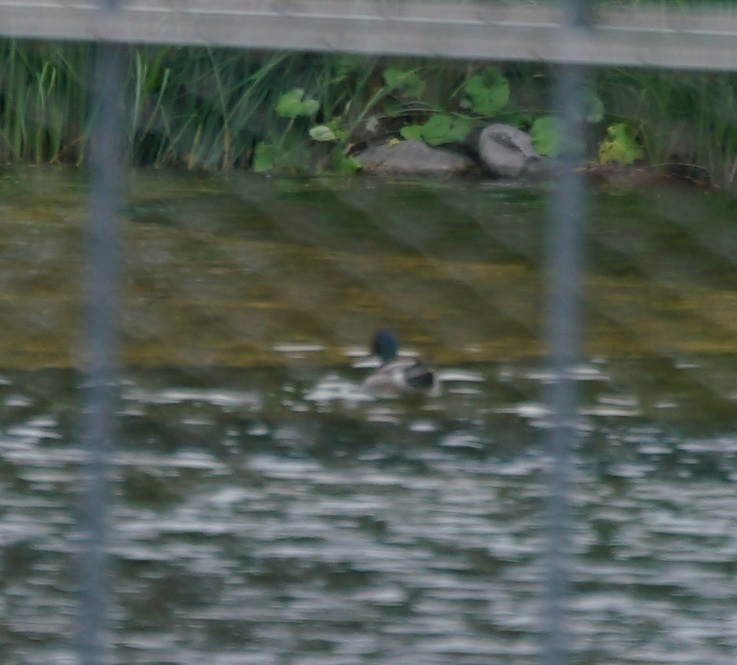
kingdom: Animalia
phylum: Chordata
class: Aves
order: Anseriformes
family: Anatidae
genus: Anas
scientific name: Anas platyrhynchos
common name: Mallard
